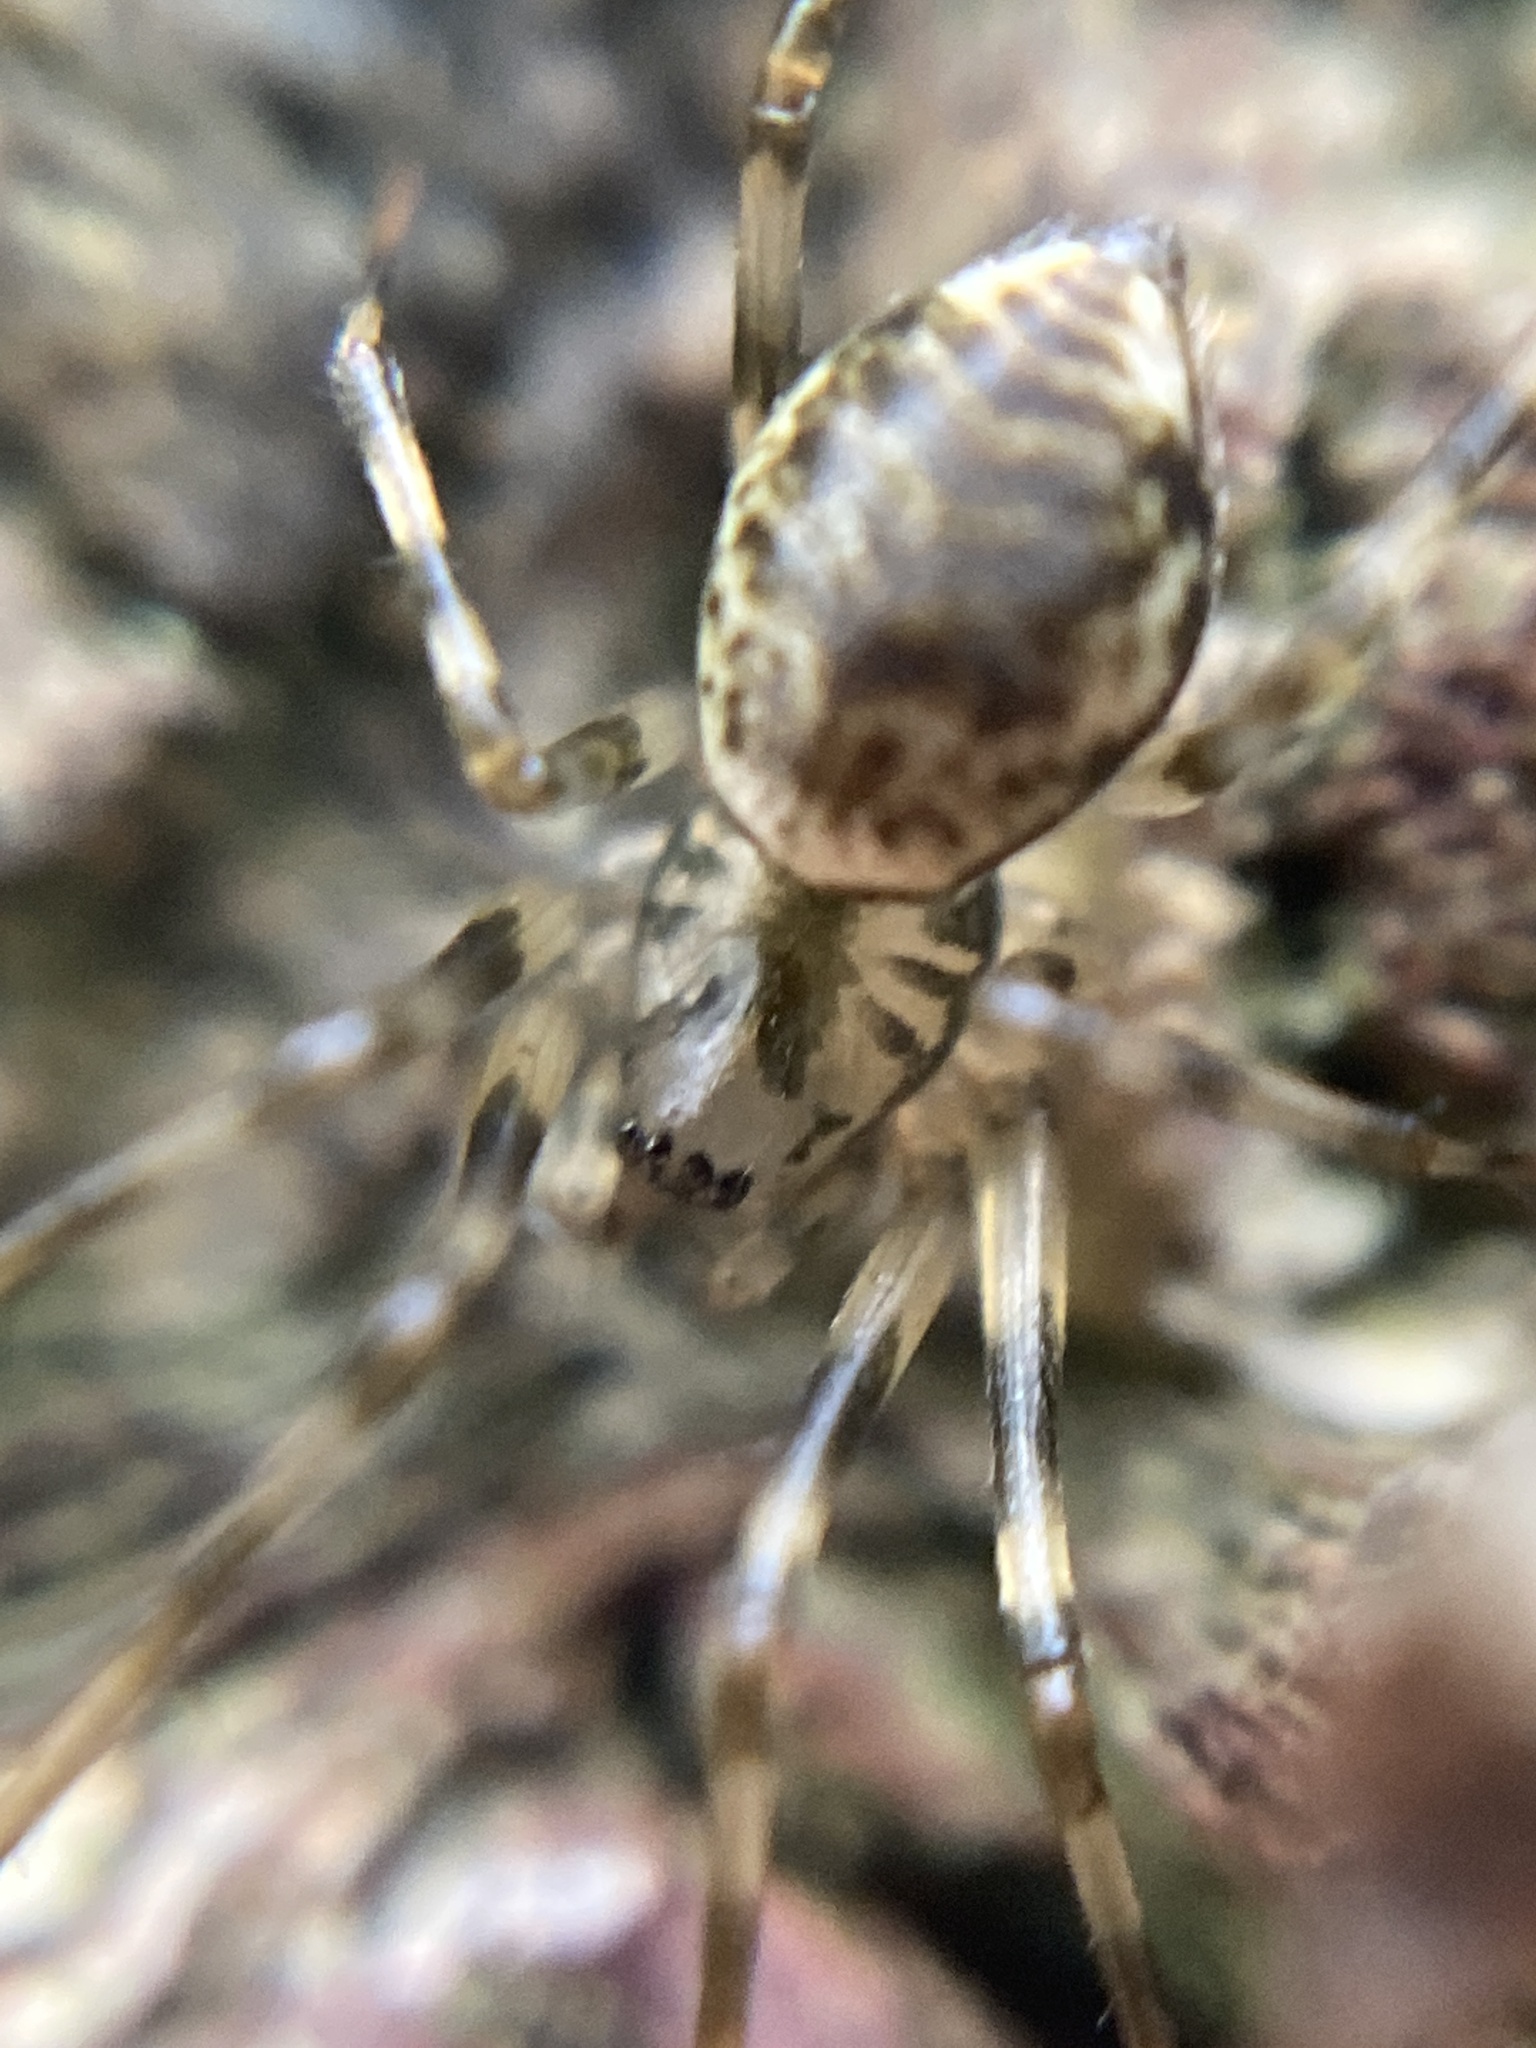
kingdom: Animalia
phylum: Arthropoda
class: Arachnida
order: Araneae
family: Linyphiidae
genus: Drapetisca
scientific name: Drapetisca socialis
